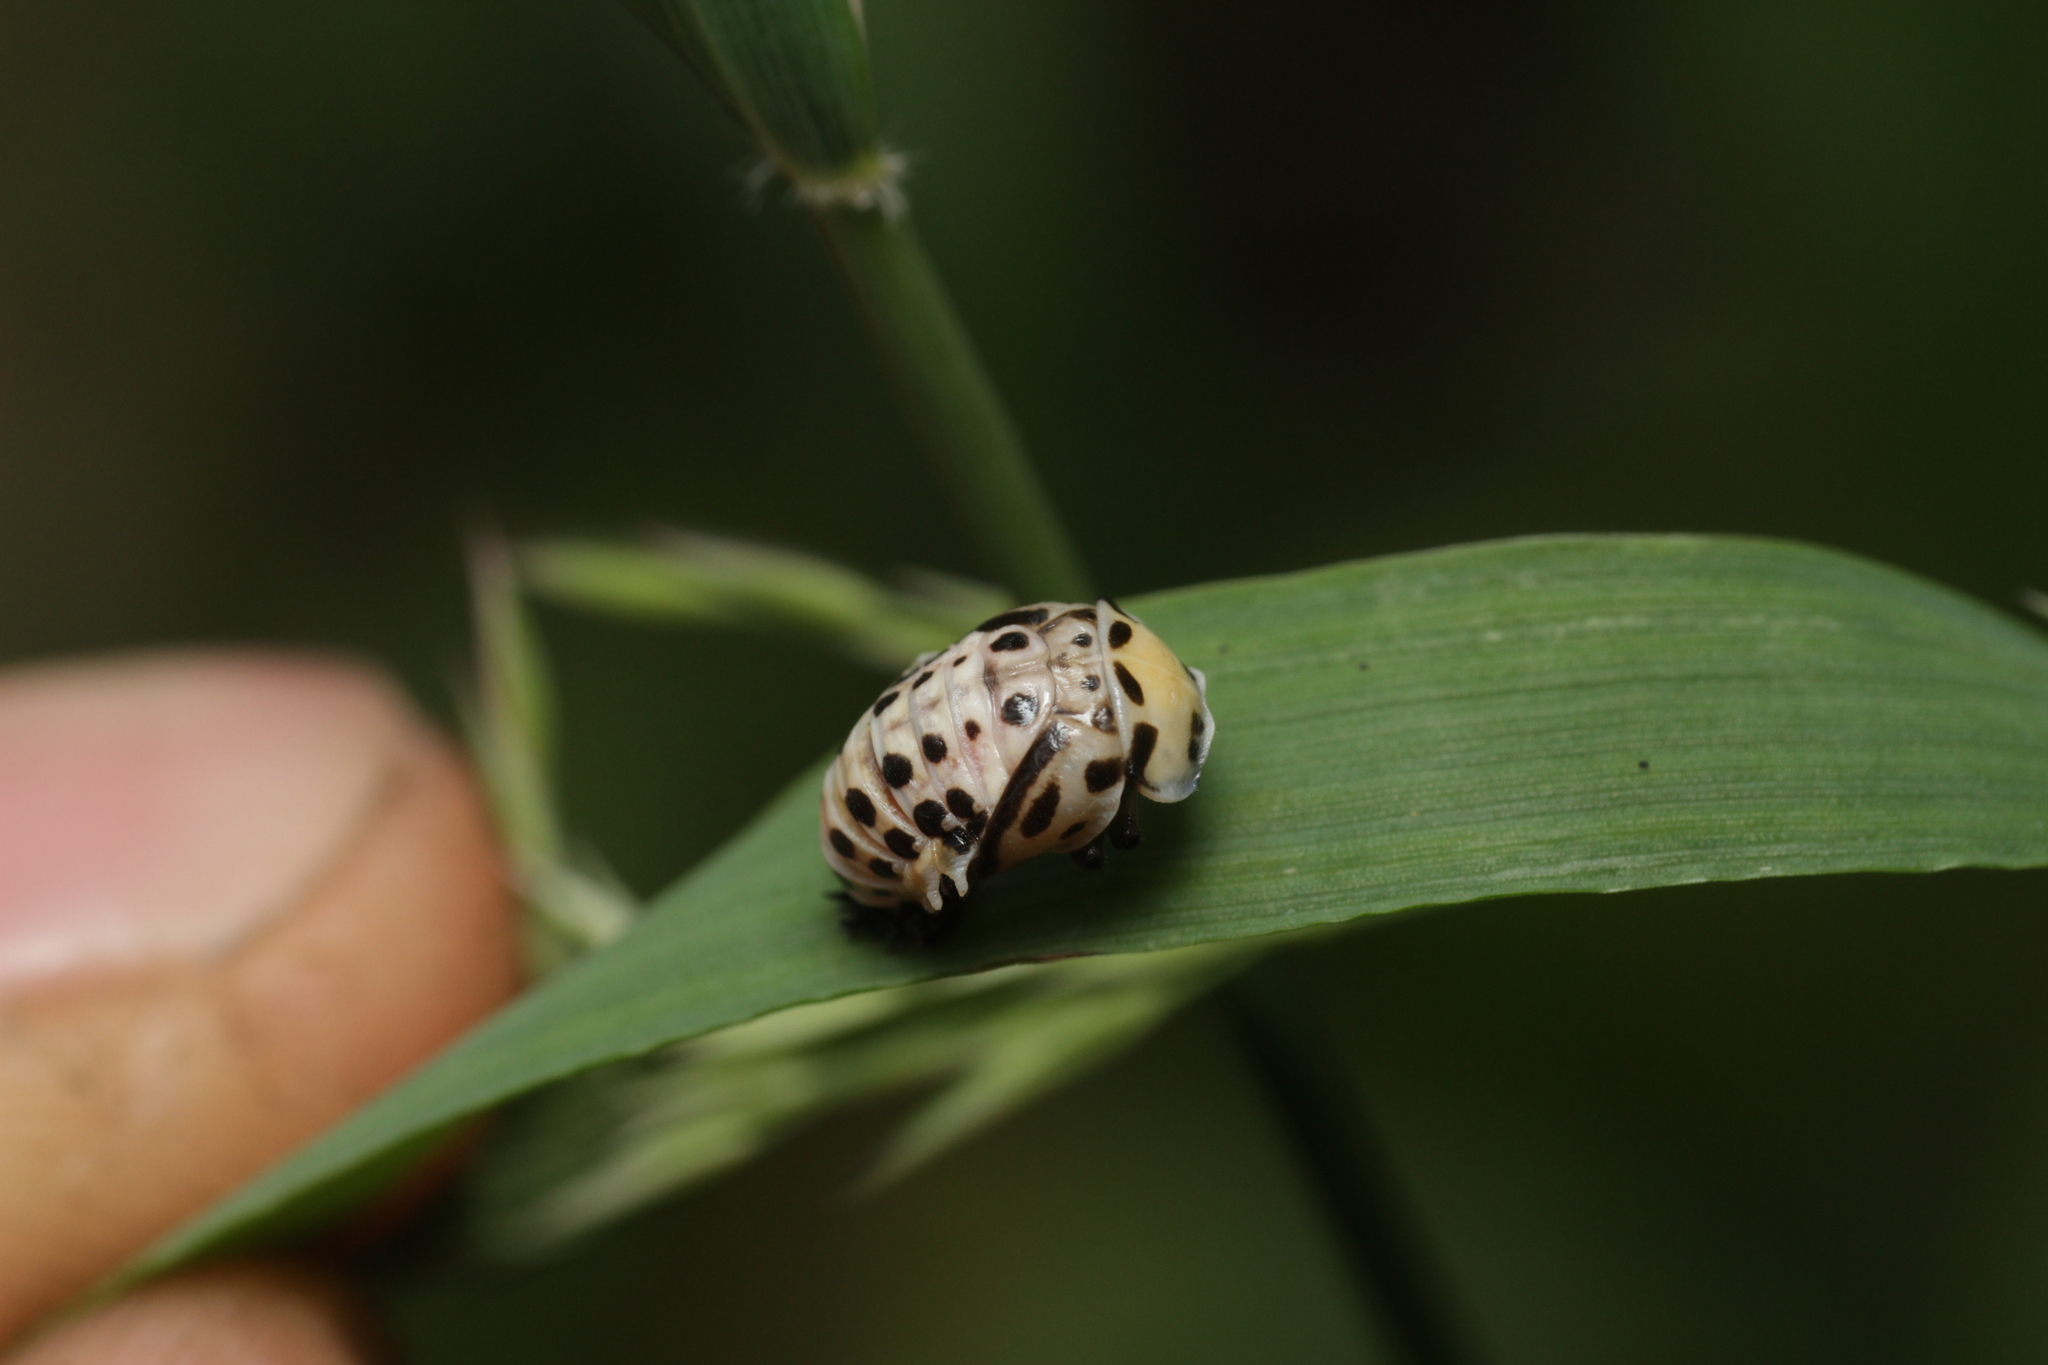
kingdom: Animalia
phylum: Arthropoda
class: Insecta
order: Coleoptera
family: Coccinellidae
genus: Anatis
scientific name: Anatis ocellata
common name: Eyed ladybird
